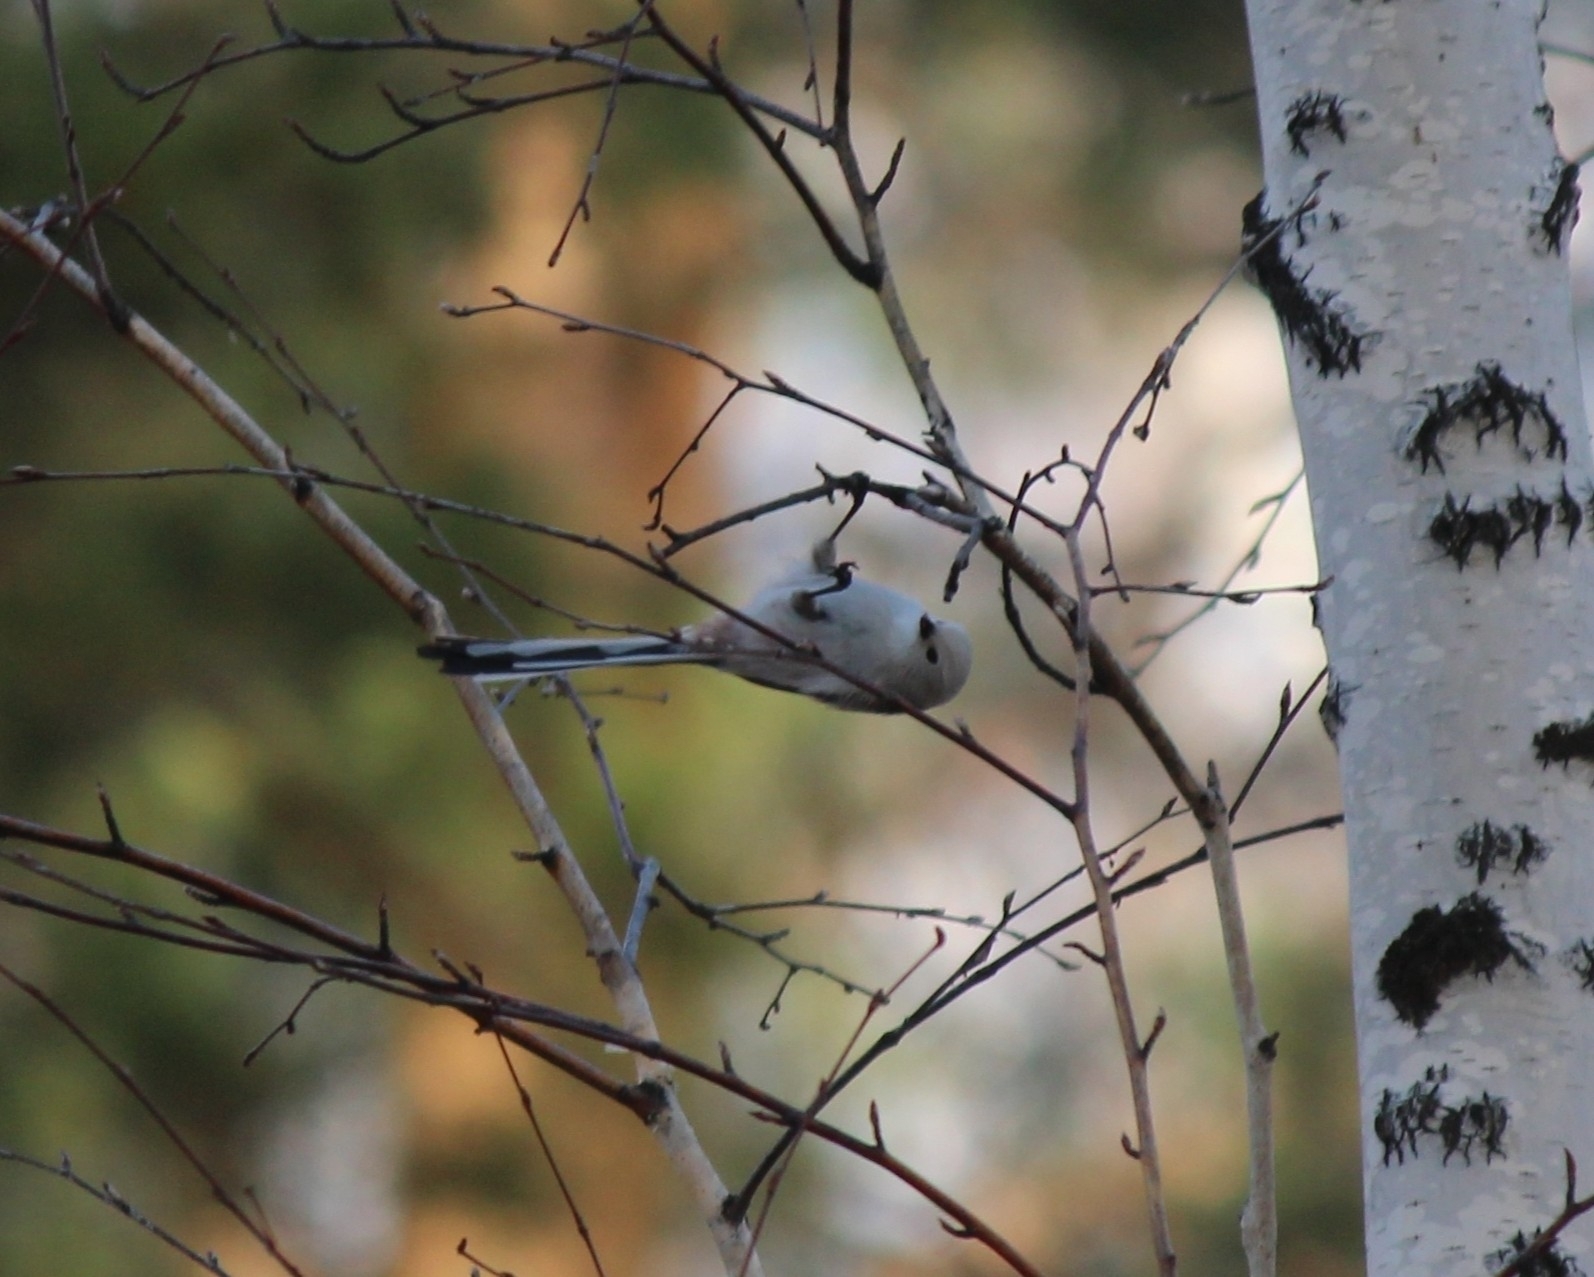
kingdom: Animalia
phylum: Chordata
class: Aves
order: Passeriformes
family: Aegithalidae
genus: Aegithalos
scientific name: Aegithalos caudatus
